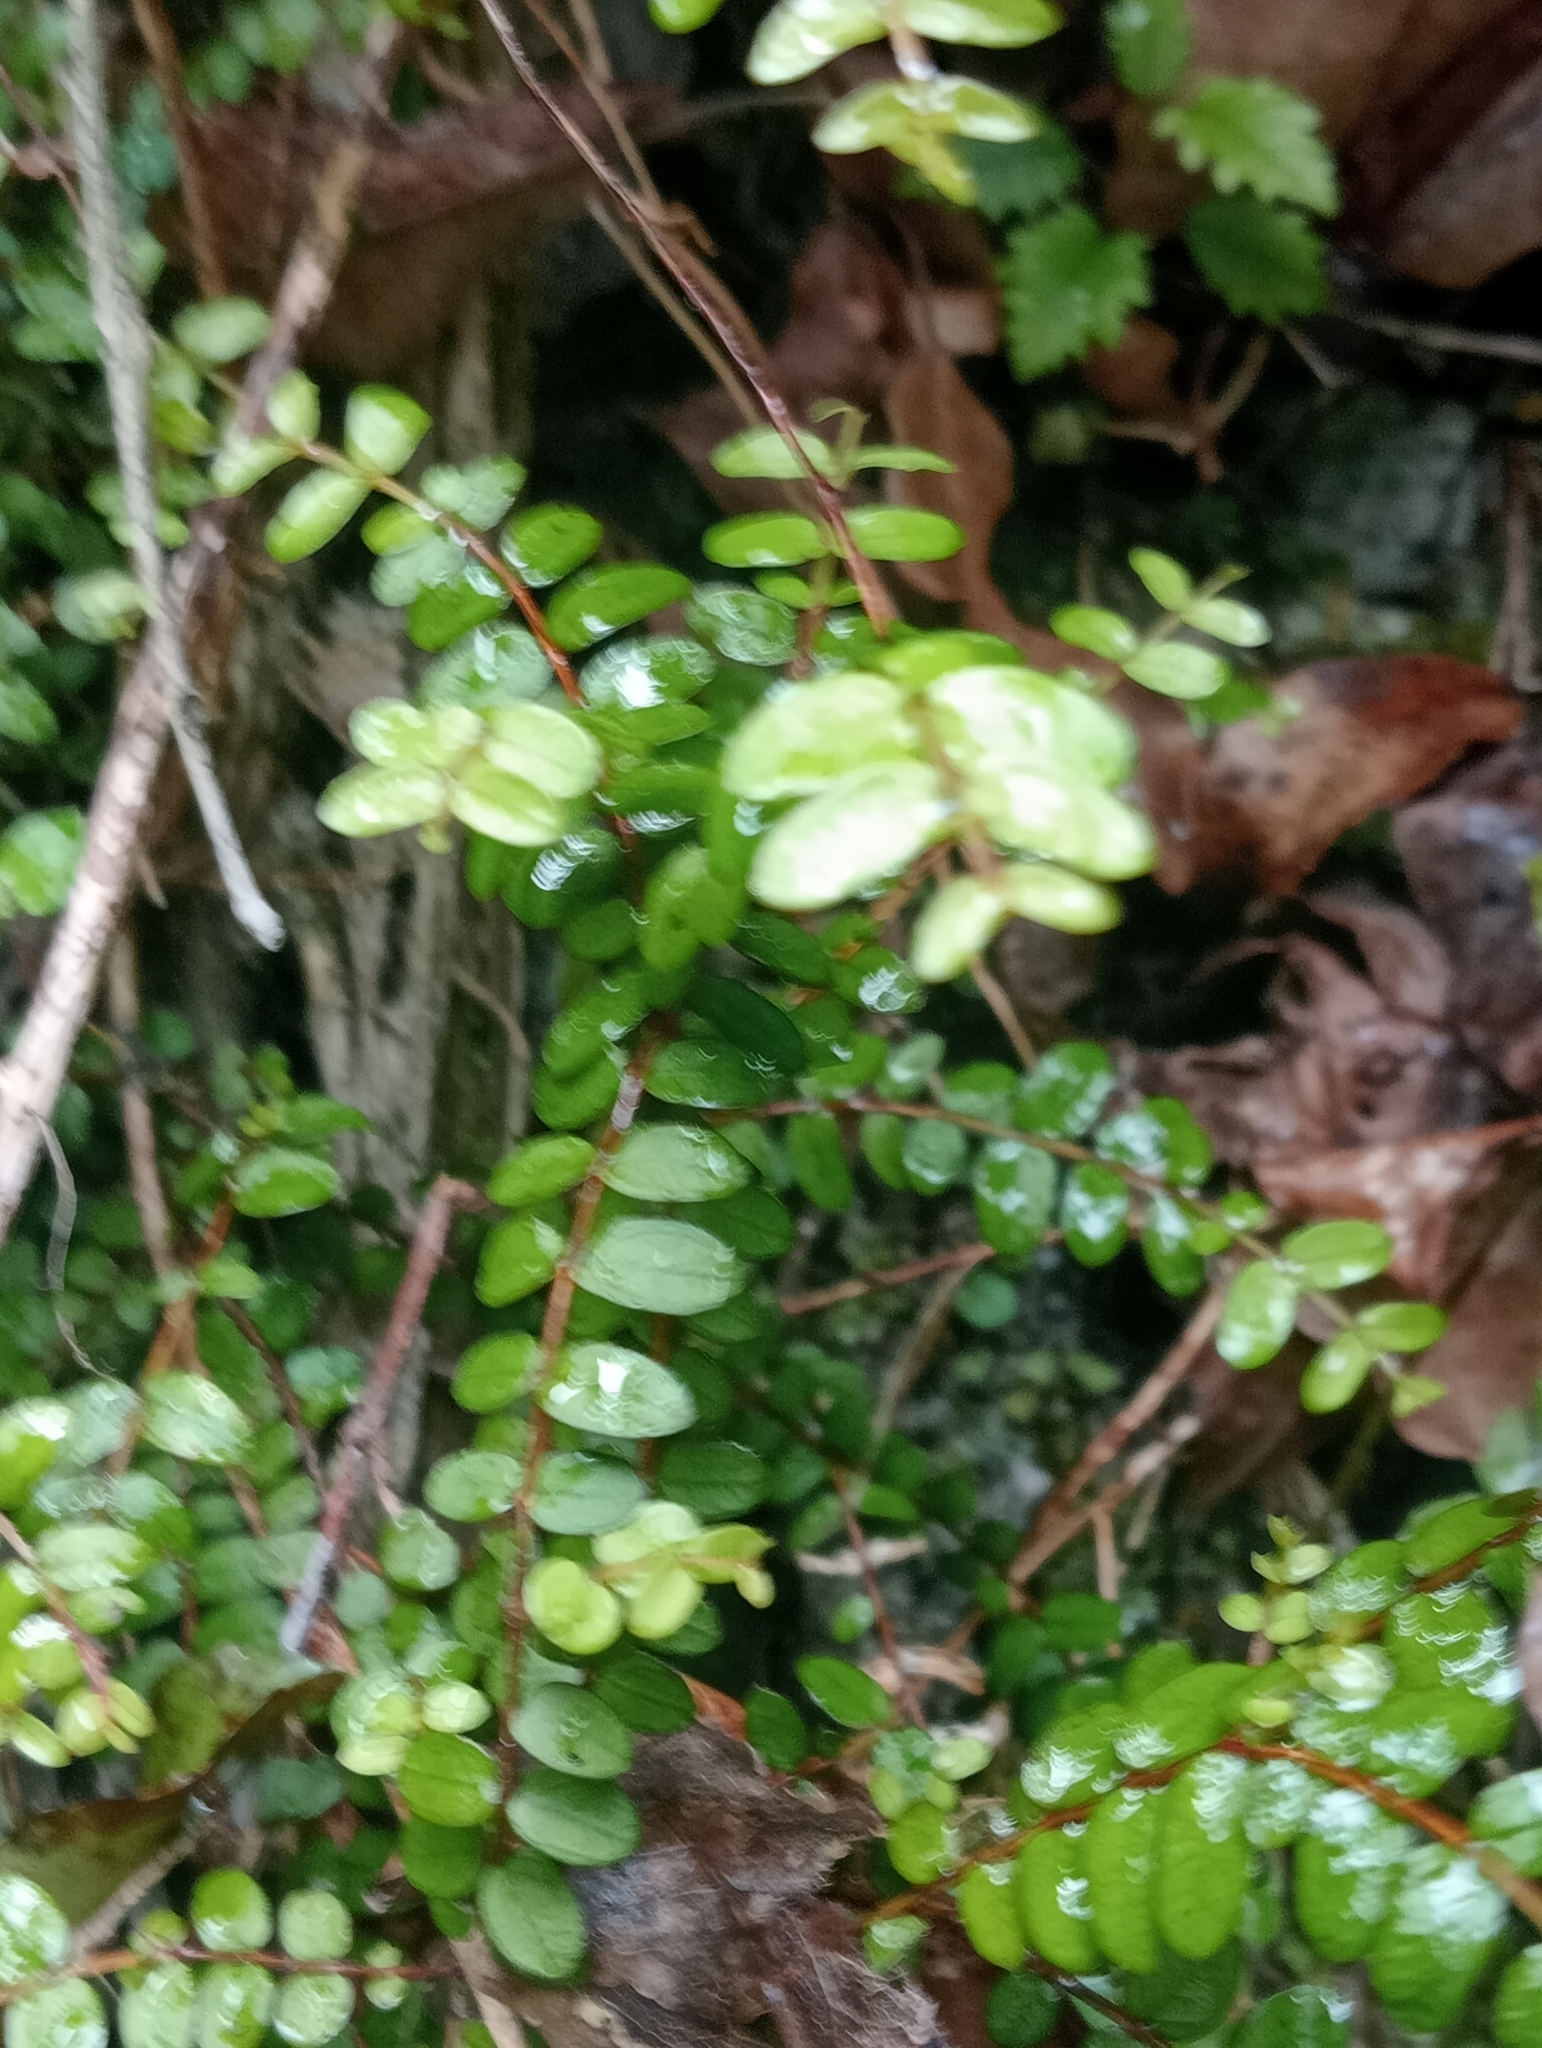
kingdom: Plantae
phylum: Tracheophyta
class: Magnoliopsida
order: Myrtales
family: Myrtaceae
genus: Metrosideros
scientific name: Metrosideros diffusa
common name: Small ratavine
